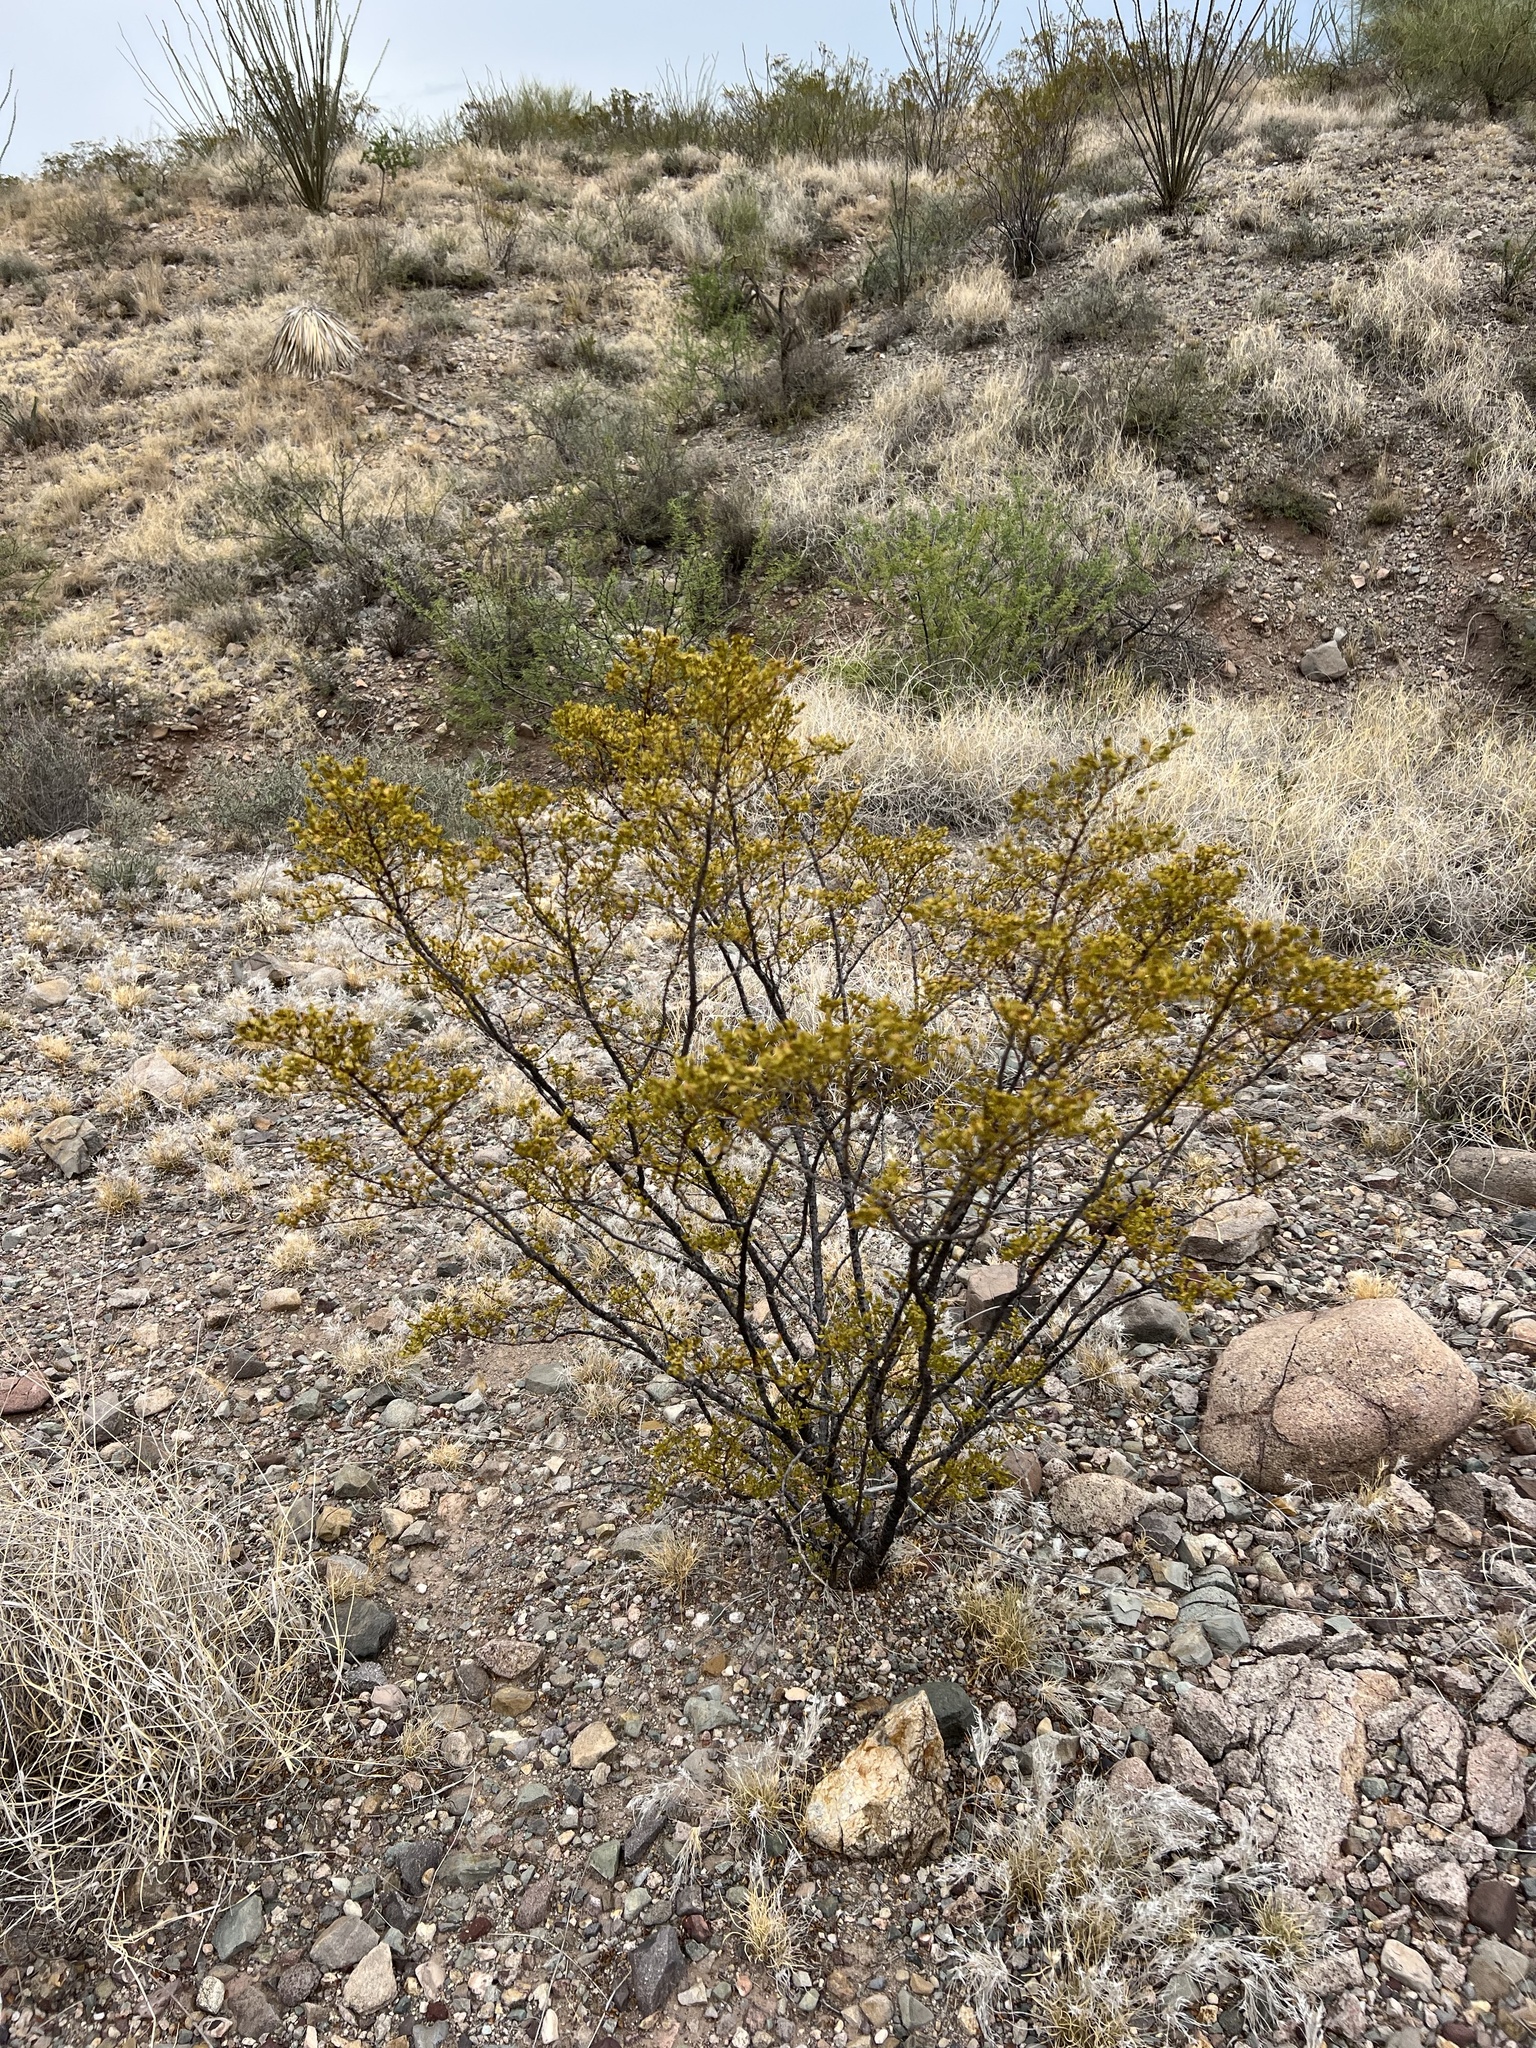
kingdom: Plantae
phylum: Tracheophyta
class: Magnoliopsida
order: Zygophyllales
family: Zygophyllaceae
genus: Larrea
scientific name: Larrea tridentata
